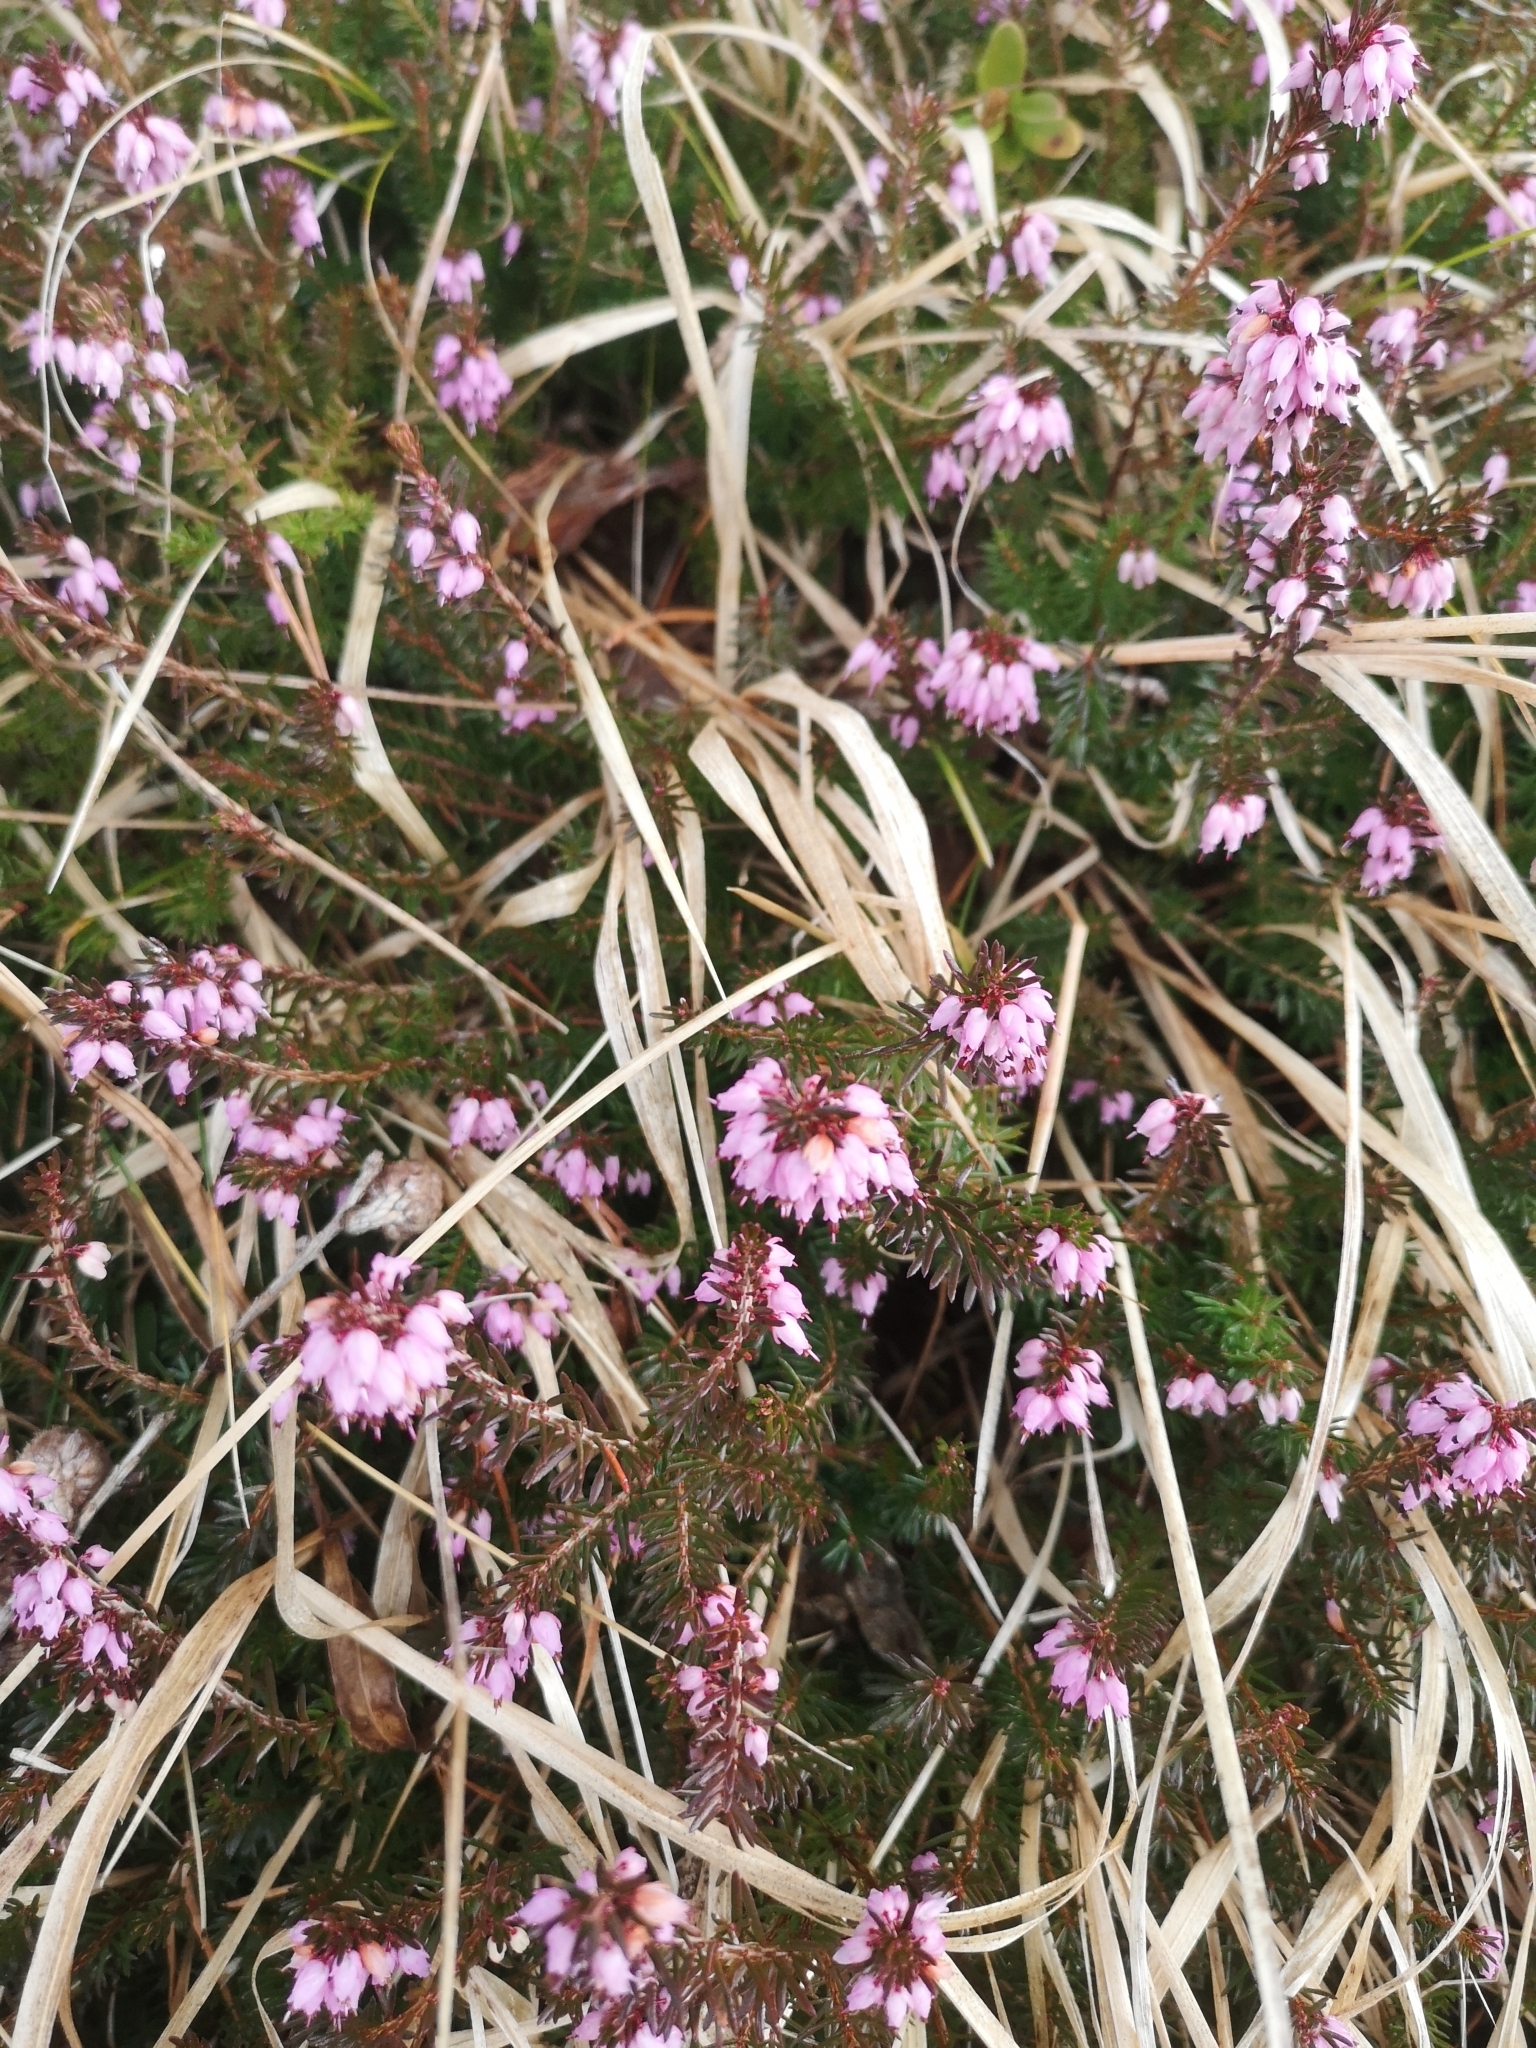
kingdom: Plantae
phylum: Tracheophyta
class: Magnoliopsida
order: Ericales
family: Ericaceae
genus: Erica
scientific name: Erica carnea
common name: Winter heath
